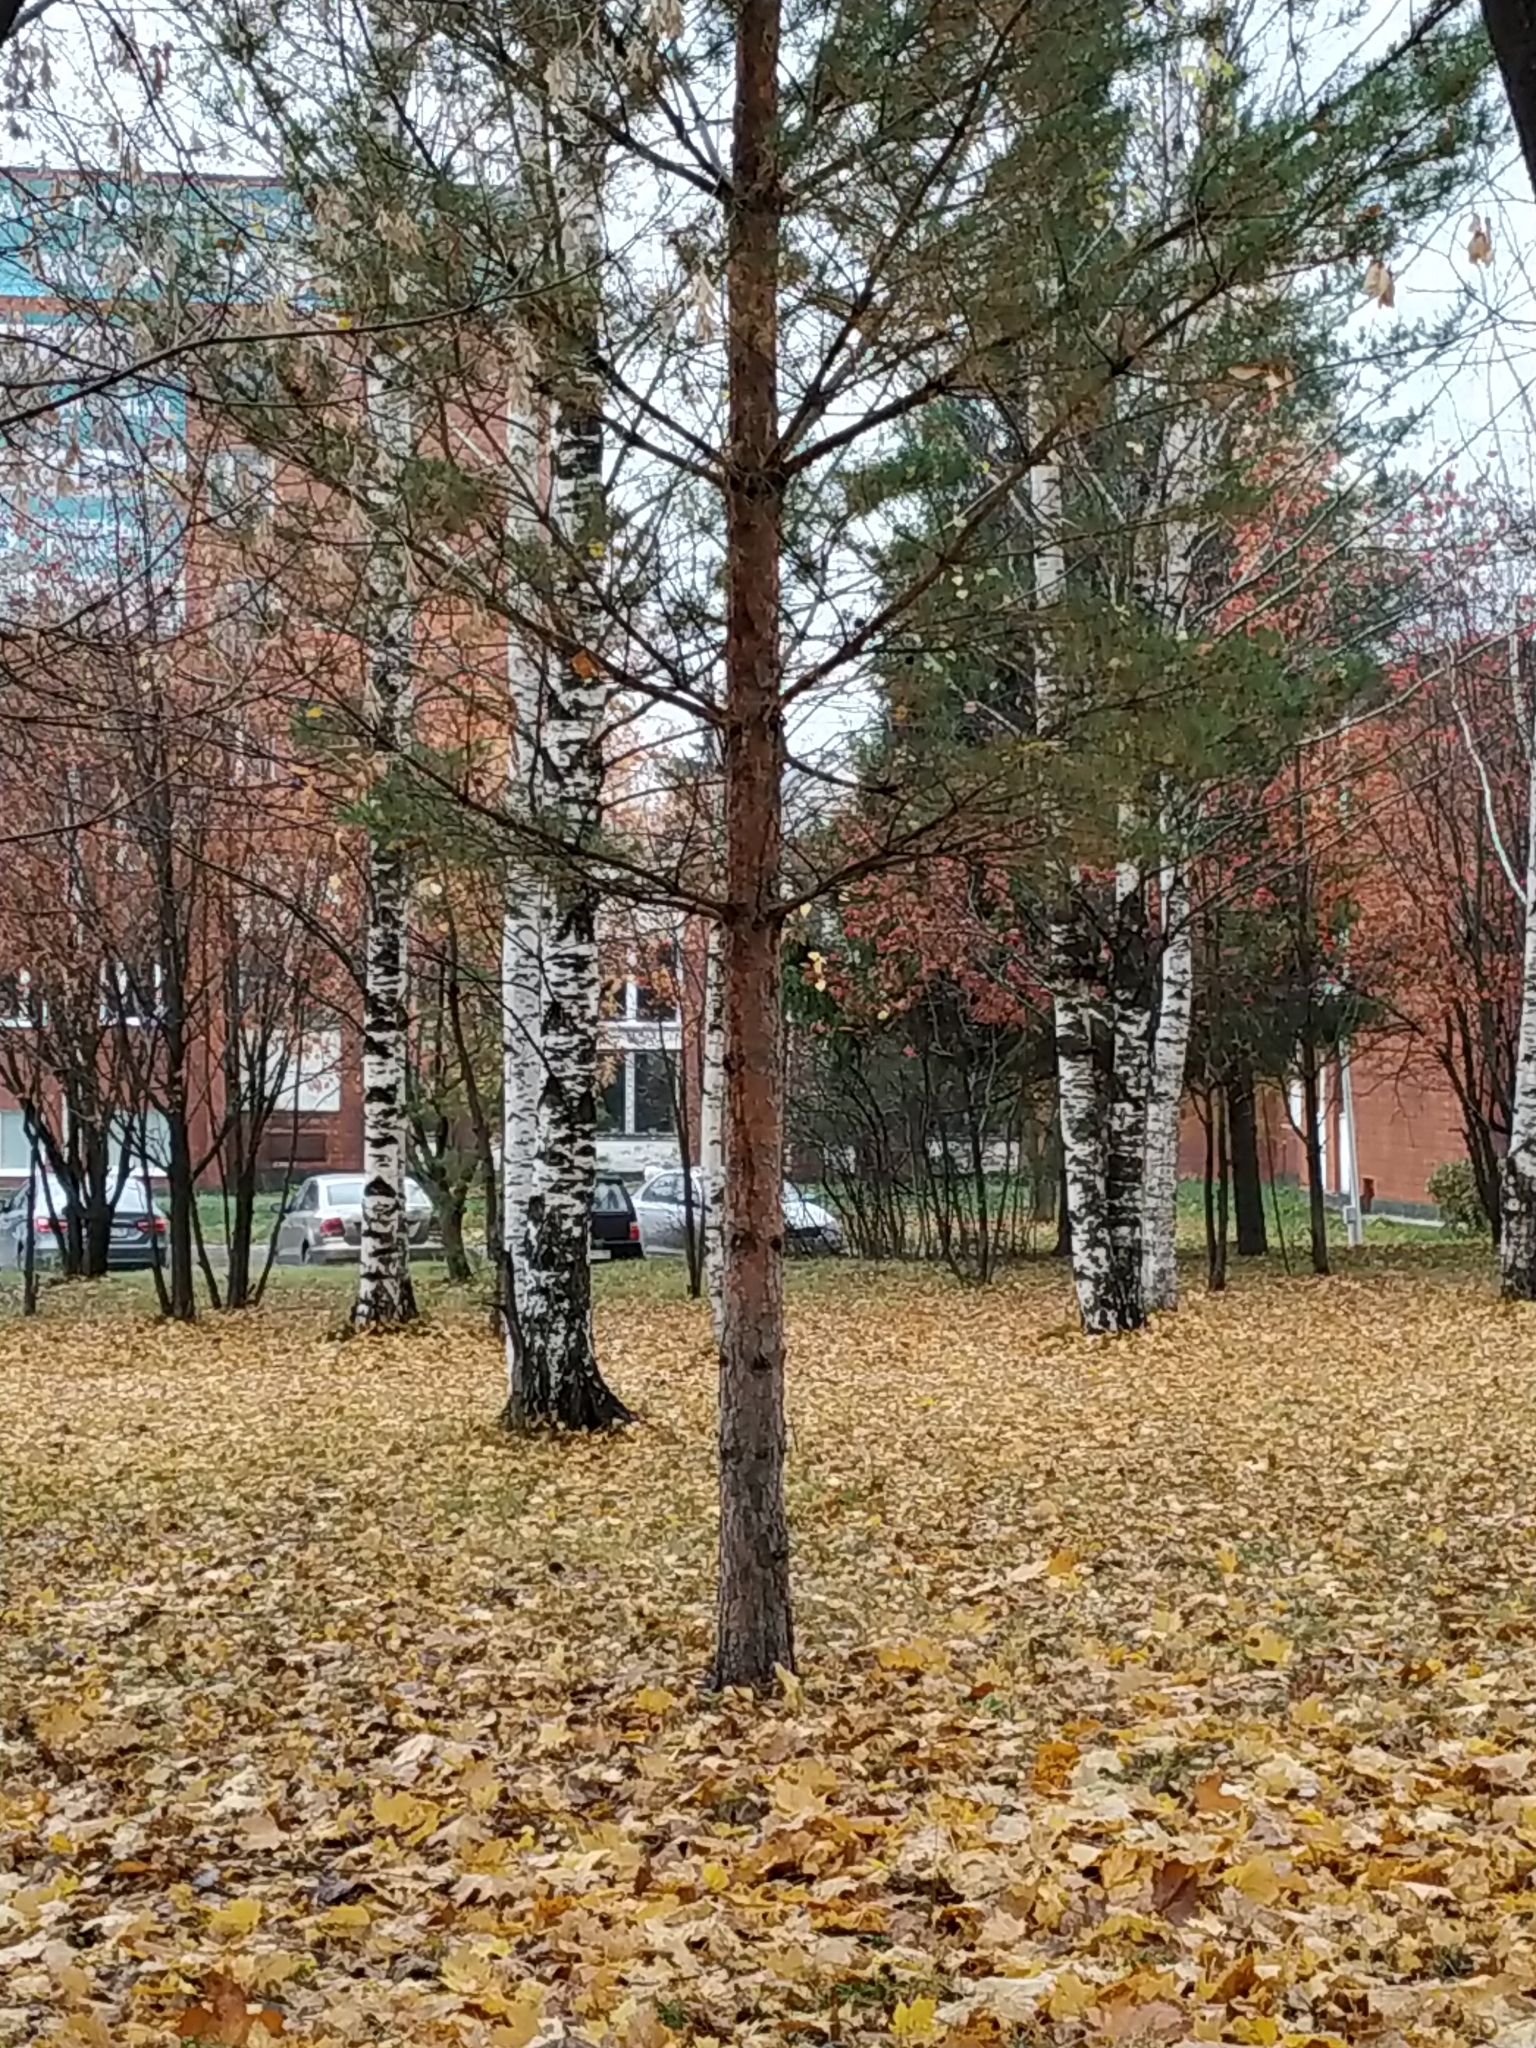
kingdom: Plantae
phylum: Tracheophyta
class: Pinopsida
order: Pinales
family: Pinaceae
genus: Pinus
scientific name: Pinus sylvestris
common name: Scots pine
